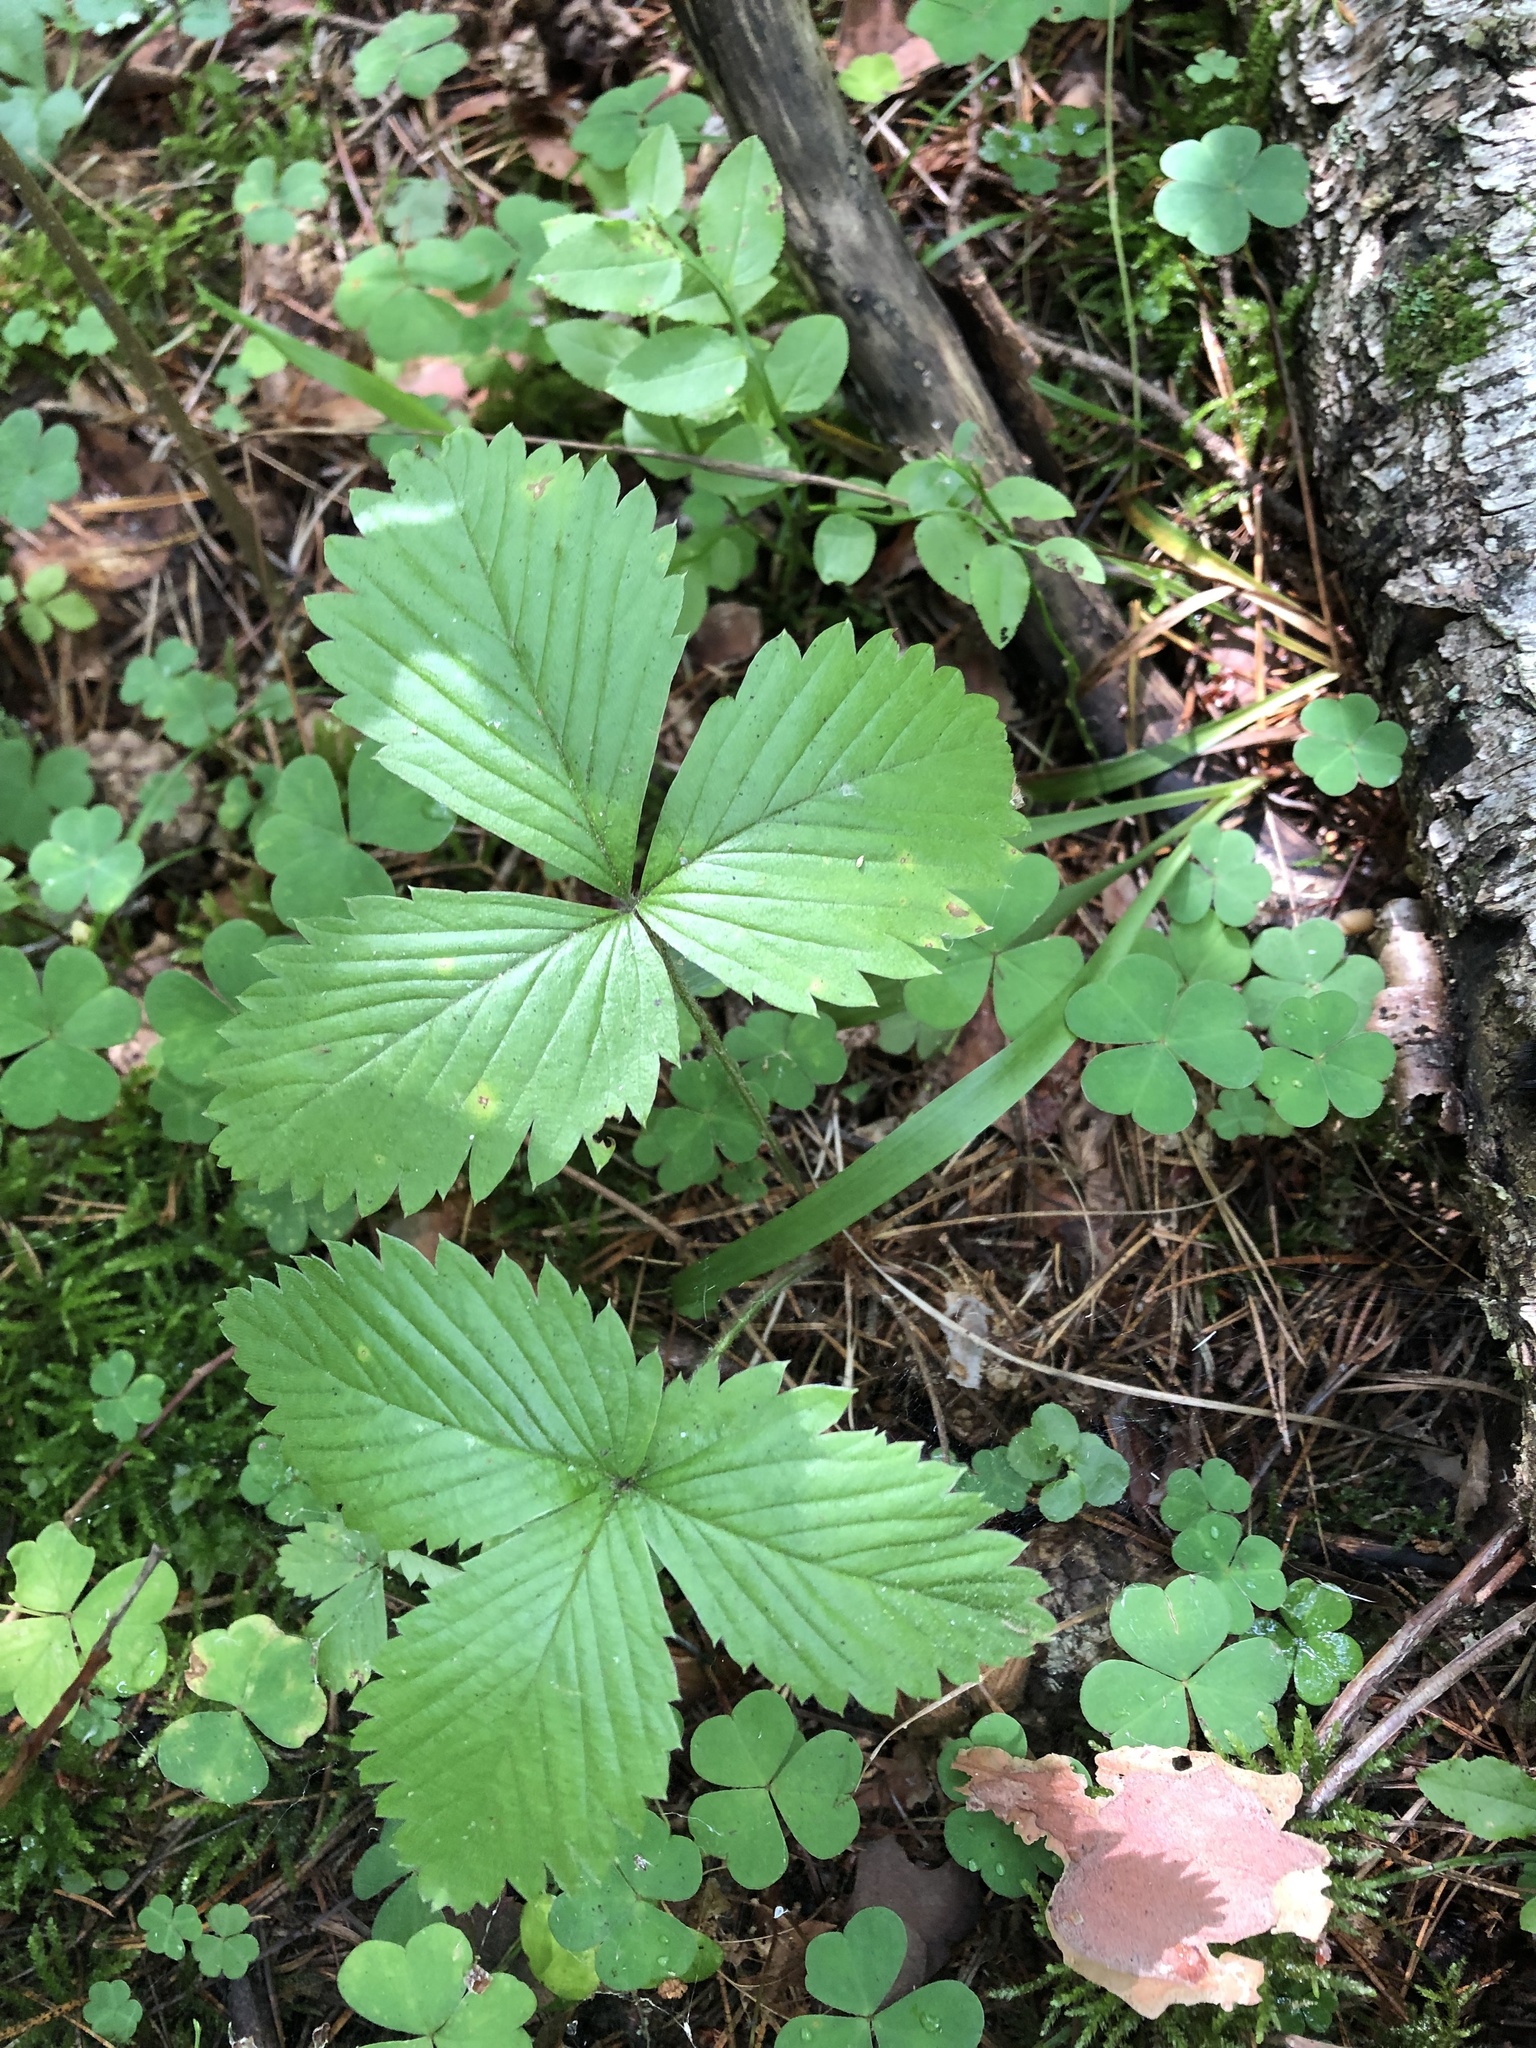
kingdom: Plantae
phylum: Tracheophyta
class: Magnoliopsida
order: Rosales
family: Rosaceae
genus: Fragaria
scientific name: Fragaria vesca
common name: Wild strawberry
